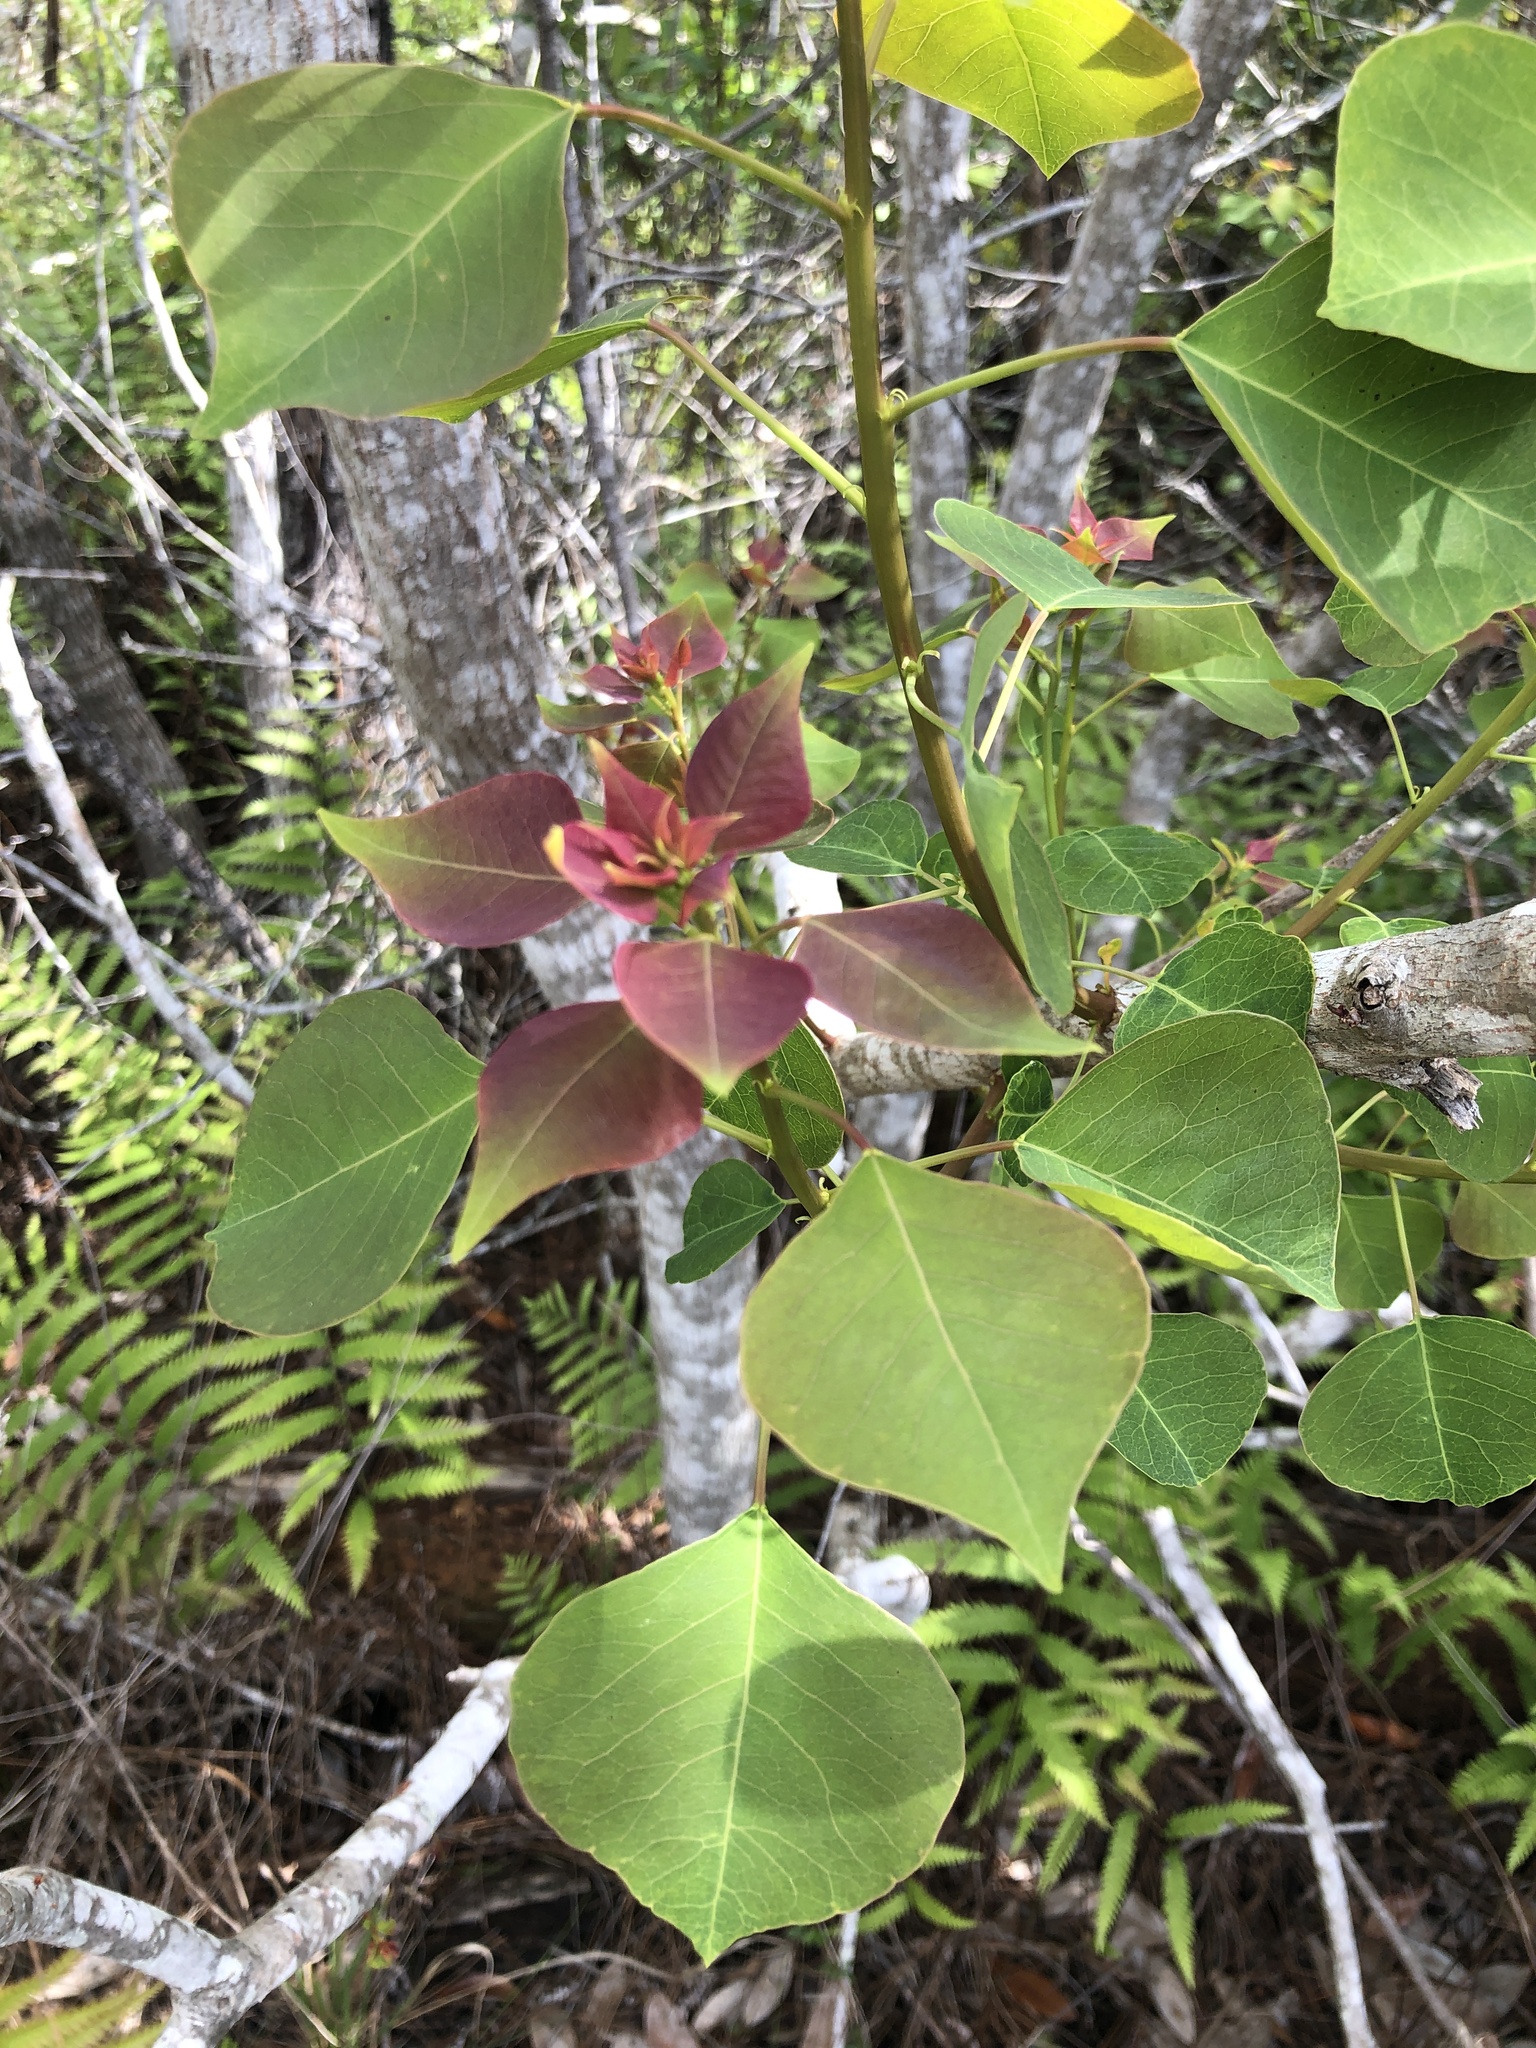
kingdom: Plantae
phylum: Tracheophyta
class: Magnoliopsida
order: Malpighiales
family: Euphorbiaceae
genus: Triadica
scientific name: Triadica sebifera
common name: Chinese tallow
